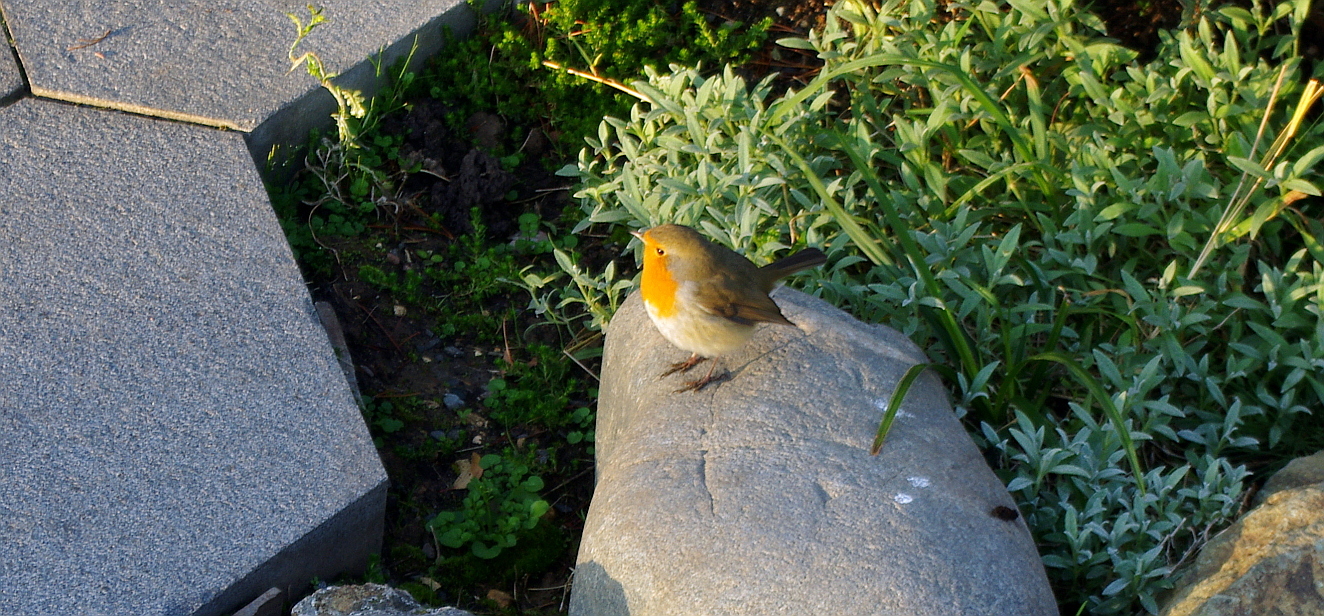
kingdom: Animalia
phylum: Chordata
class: Aves
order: Passeriformes
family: Muscicapidae
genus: Erithacus
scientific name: Erithacus rubecula
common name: European robin
